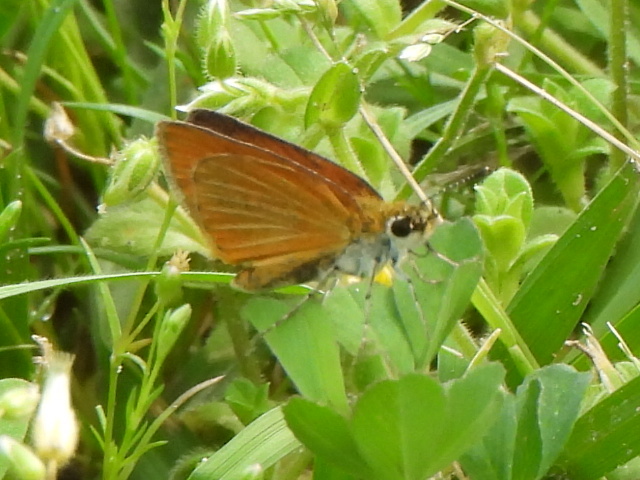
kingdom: Animalia
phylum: Arthropoda
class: Insecta
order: Lepidoptera
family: Hesperiidae
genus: Ancyloxypha
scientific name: Ancyloxypha numitor
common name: Least skipper
